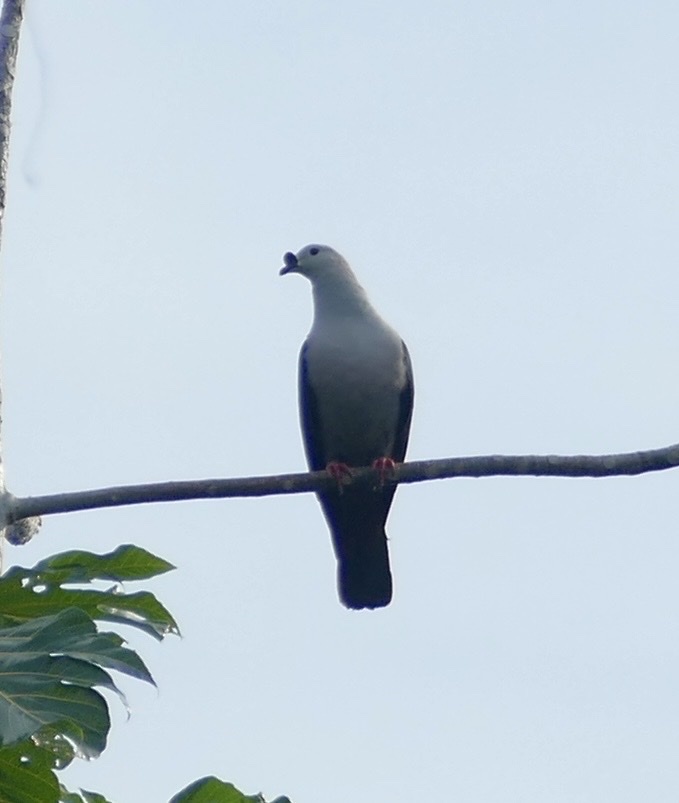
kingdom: Animalia
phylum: Chordata
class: Aves
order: Columbiformes
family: Columbidae
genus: Ducula
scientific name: Ducula myristicivora
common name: Spice imperial pigeon
